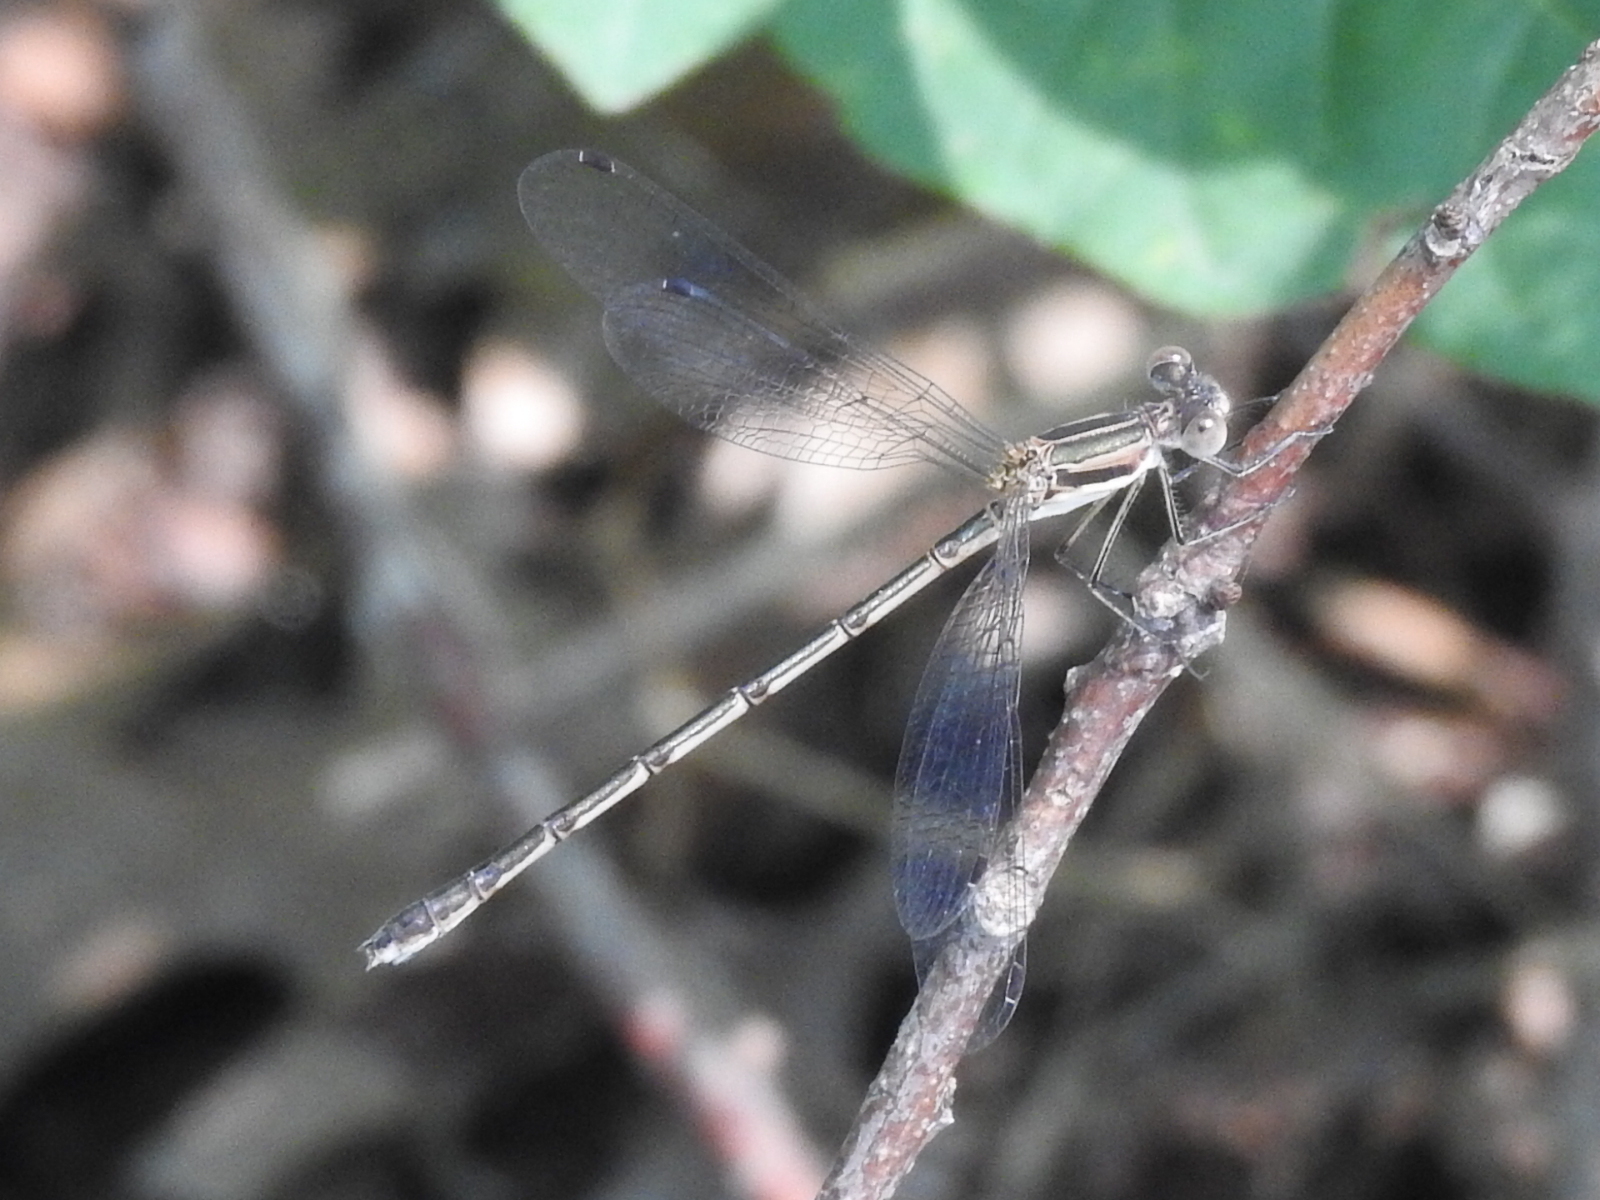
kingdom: Animalia
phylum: Arthropoda
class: Insecta
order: Odonata
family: Lestidae
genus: Lestes
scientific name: Lestes australis
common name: Southern spreadwing
